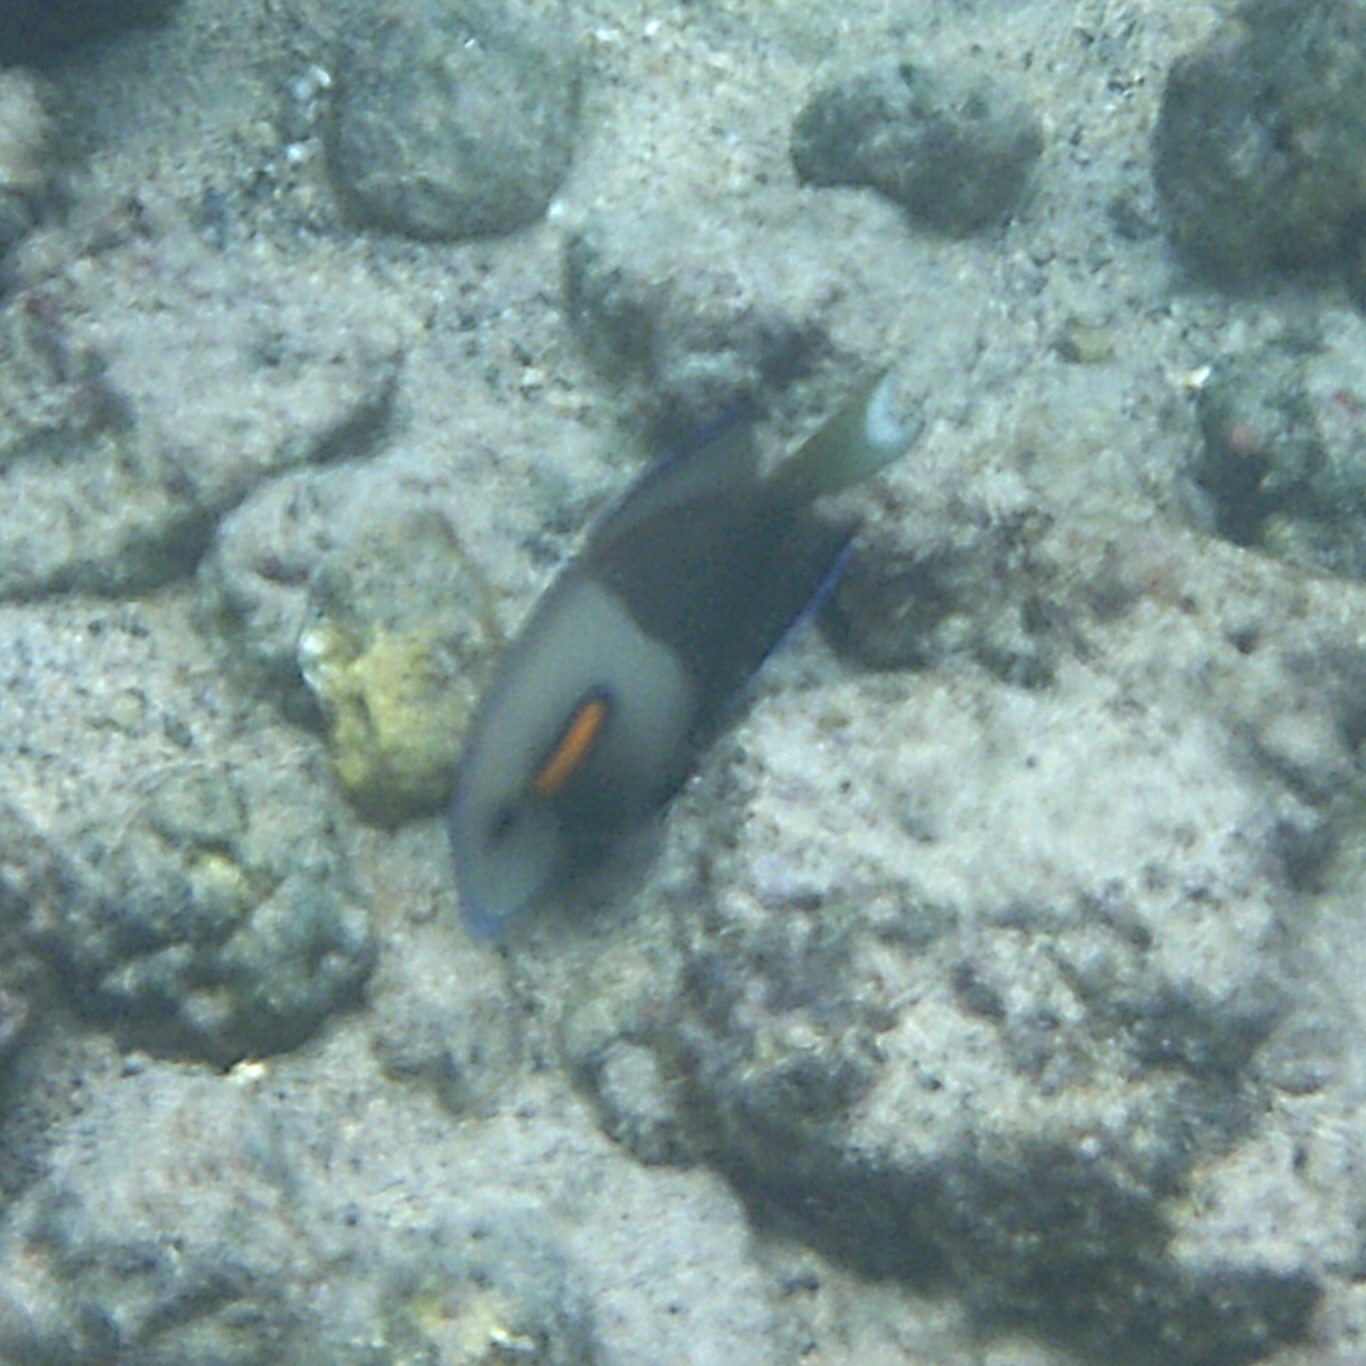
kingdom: Animalia
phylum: Chordata
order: Perciformes
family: Acanthuridae
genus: Acanthurus
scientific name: Acanthurus olivaceus
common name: Gendarme fish
